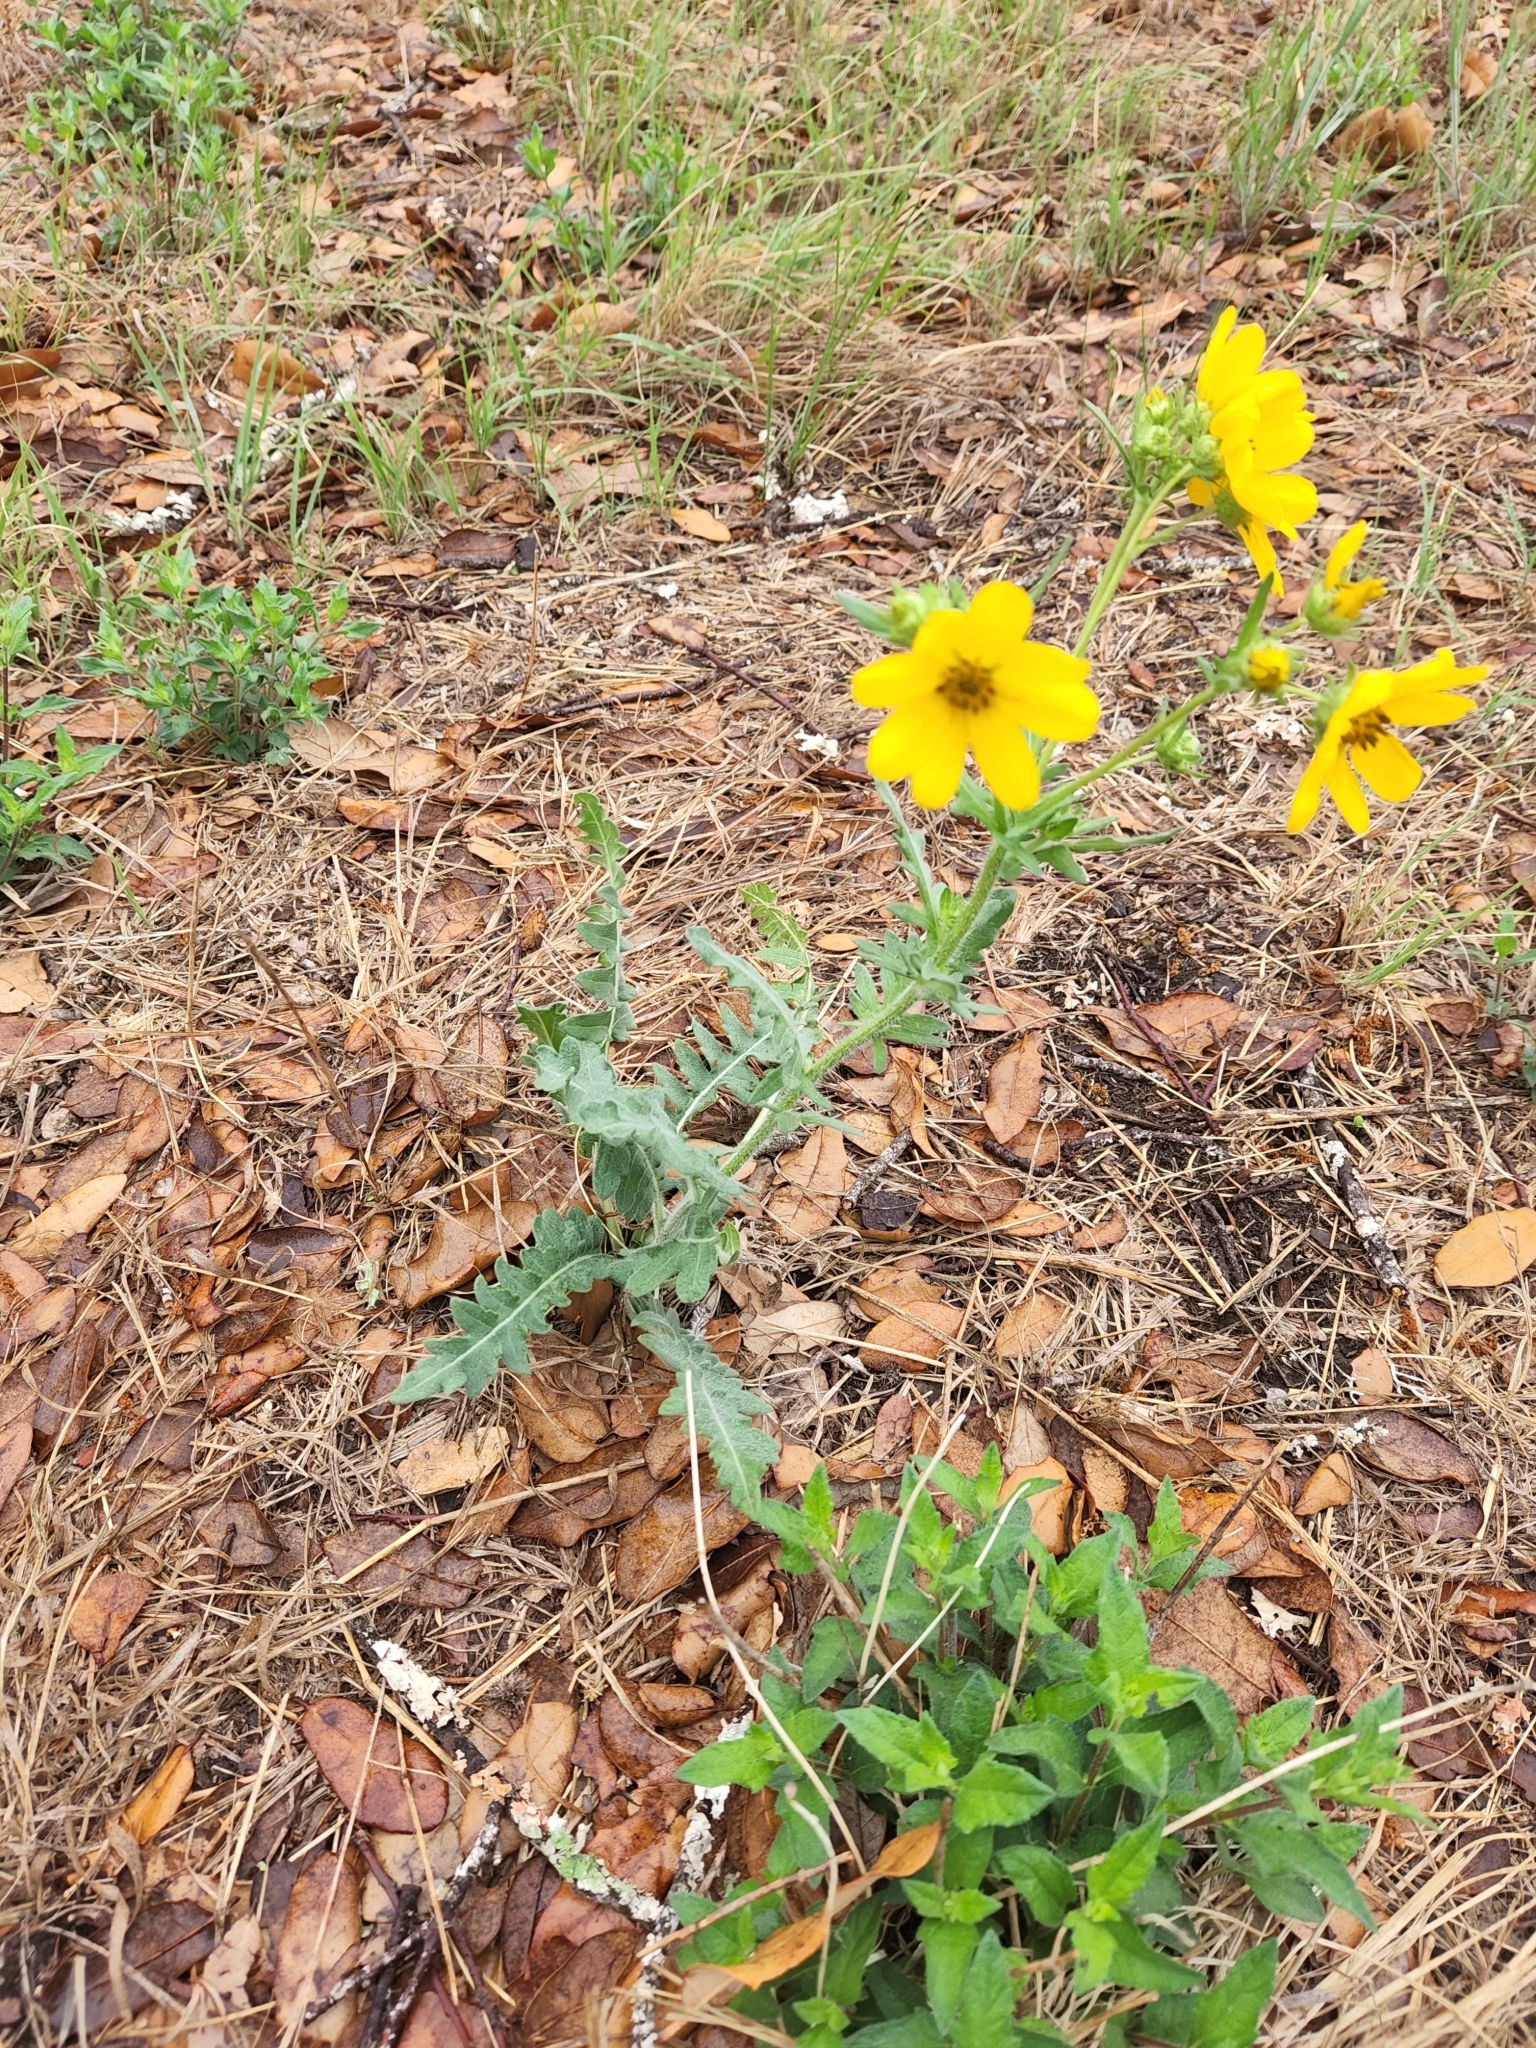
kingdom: Plantae
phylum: Tracheophyta
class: Magnoliopsida
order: Asterales
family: Asteraceae
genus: Engelmannia
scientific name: Engelmannia peristenia
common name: Engelmann's daisy
